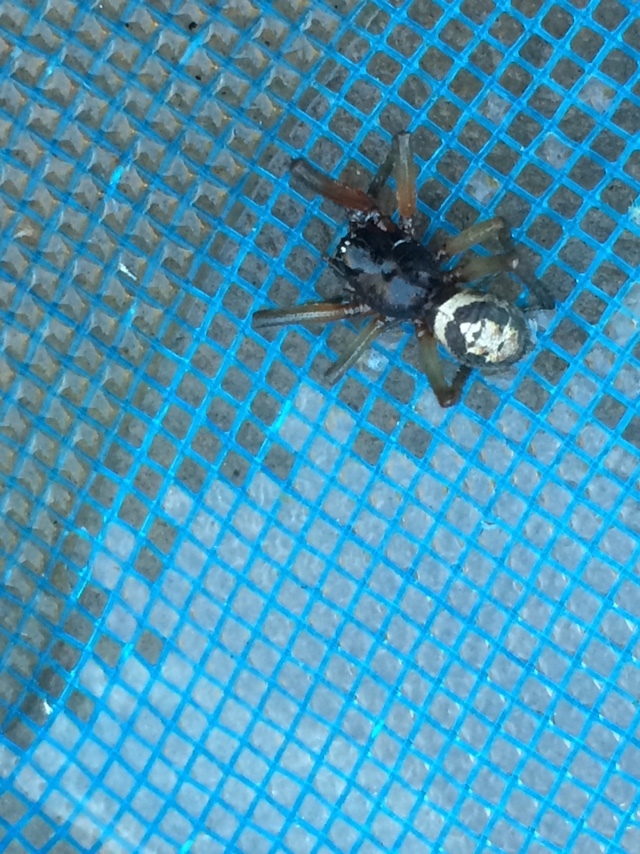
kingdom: Animalia
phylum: Arthropoda
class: Arachnida
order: Araneae
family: Theridiidae
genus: Steatoda
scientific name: Steatoda nobilis
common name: Cobweb weaver
